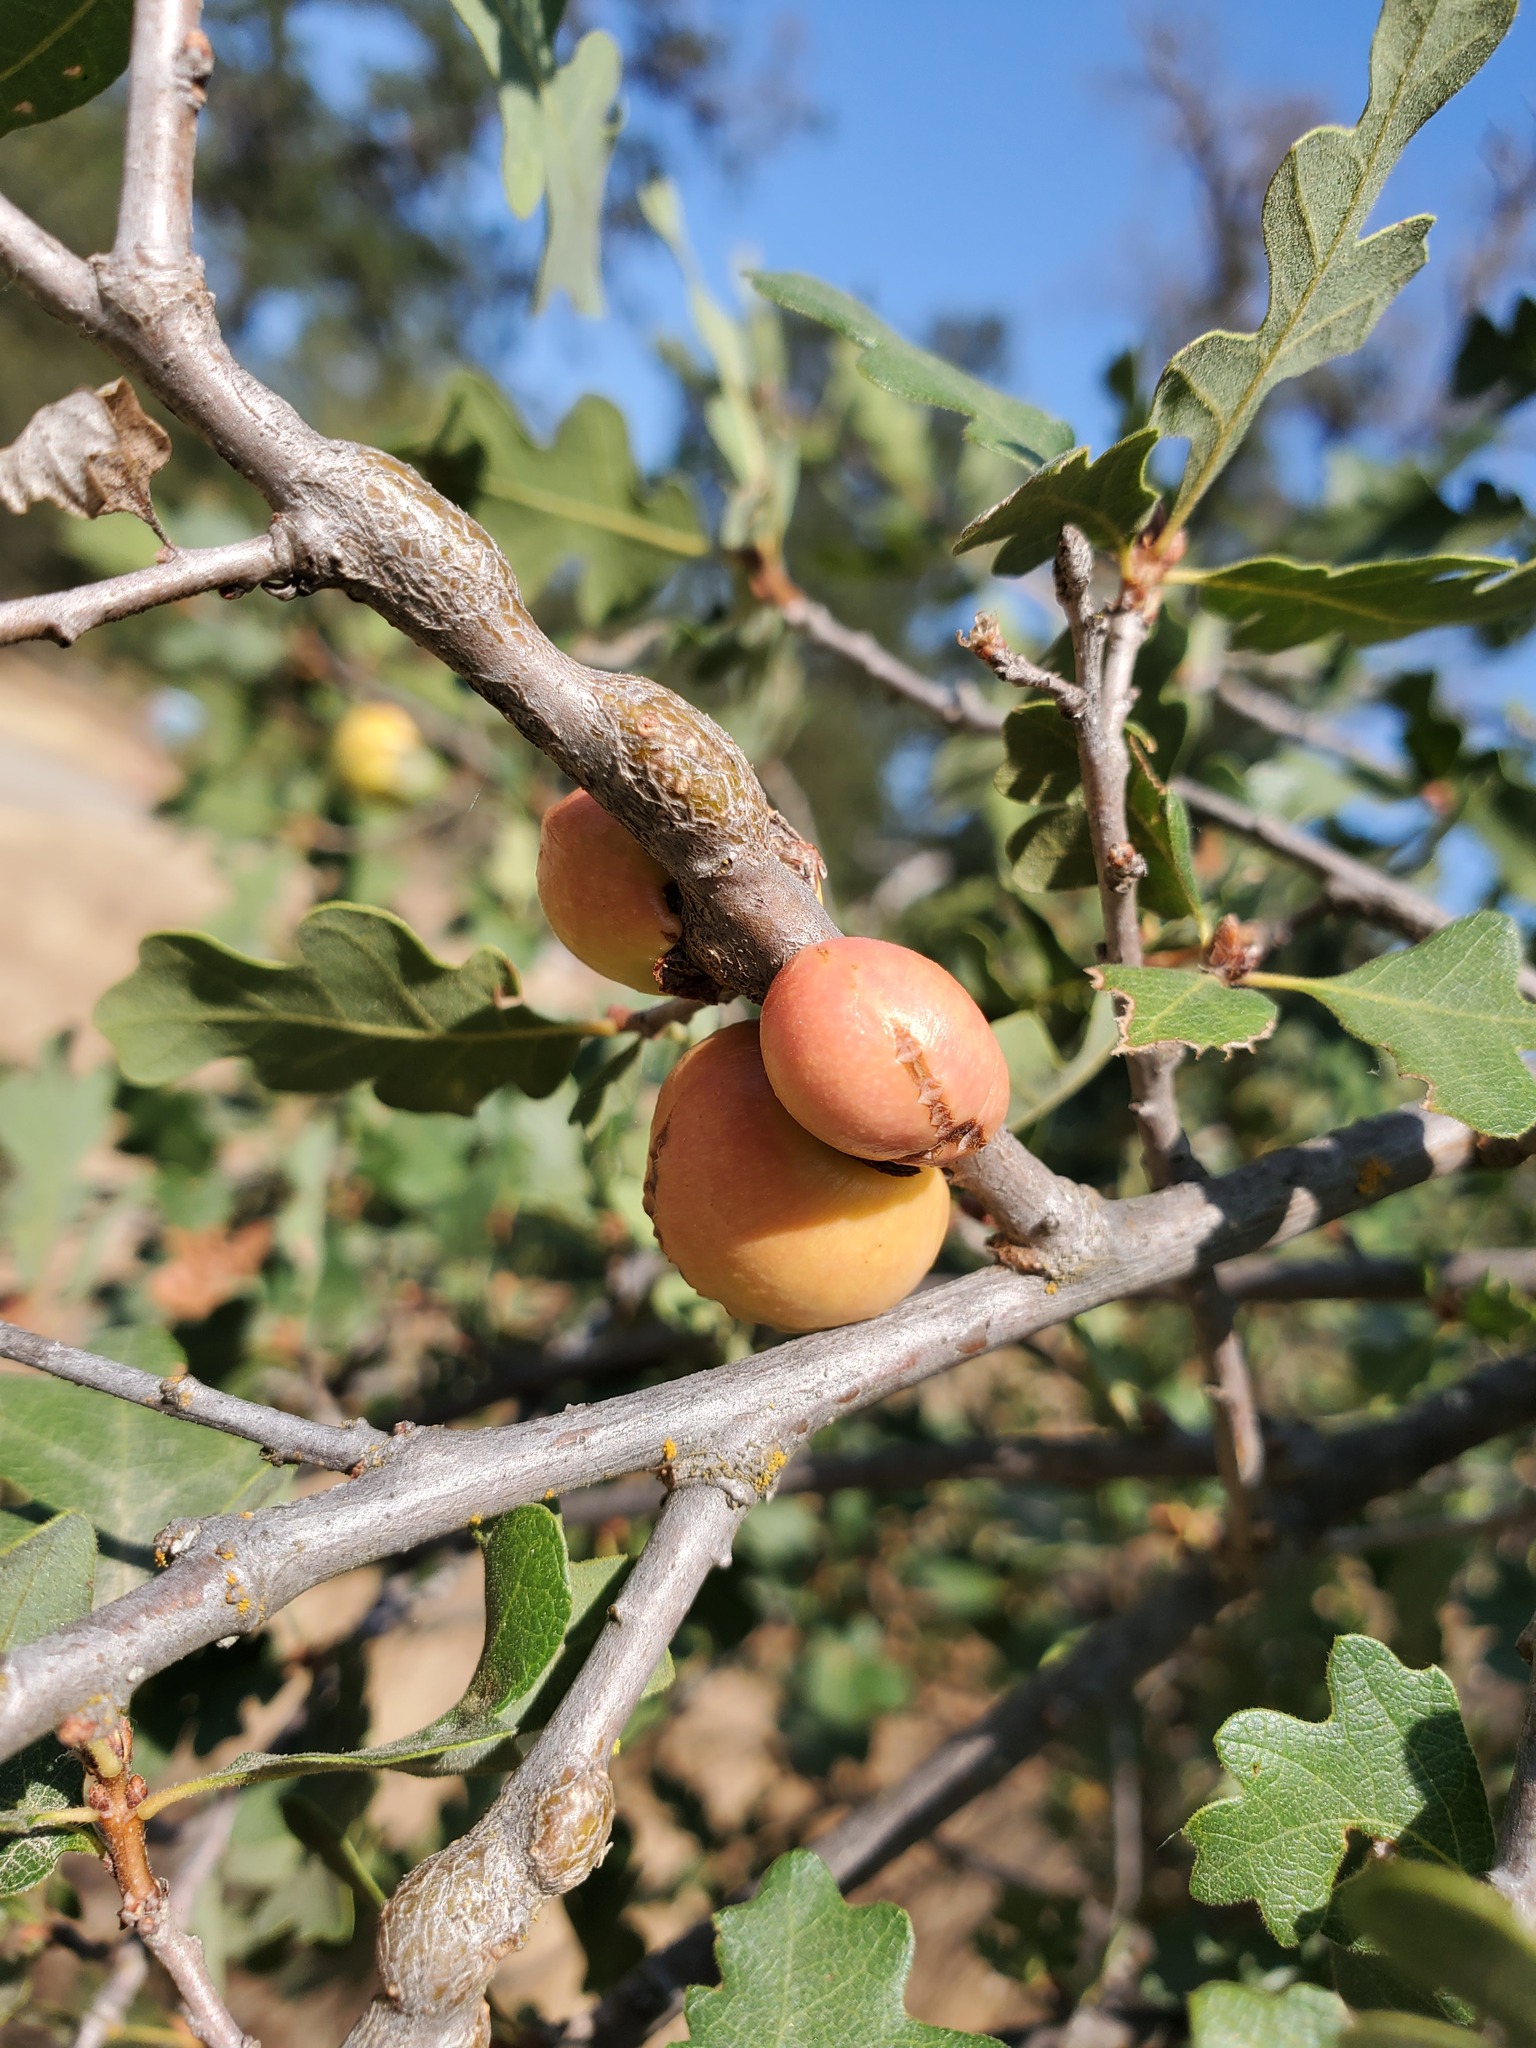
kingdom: Animalia
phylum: Arthropoda
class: Insecta
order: Hymenoptera
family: Cynipidae
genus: Andricus
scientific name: Andricus quercuscalifornicus
